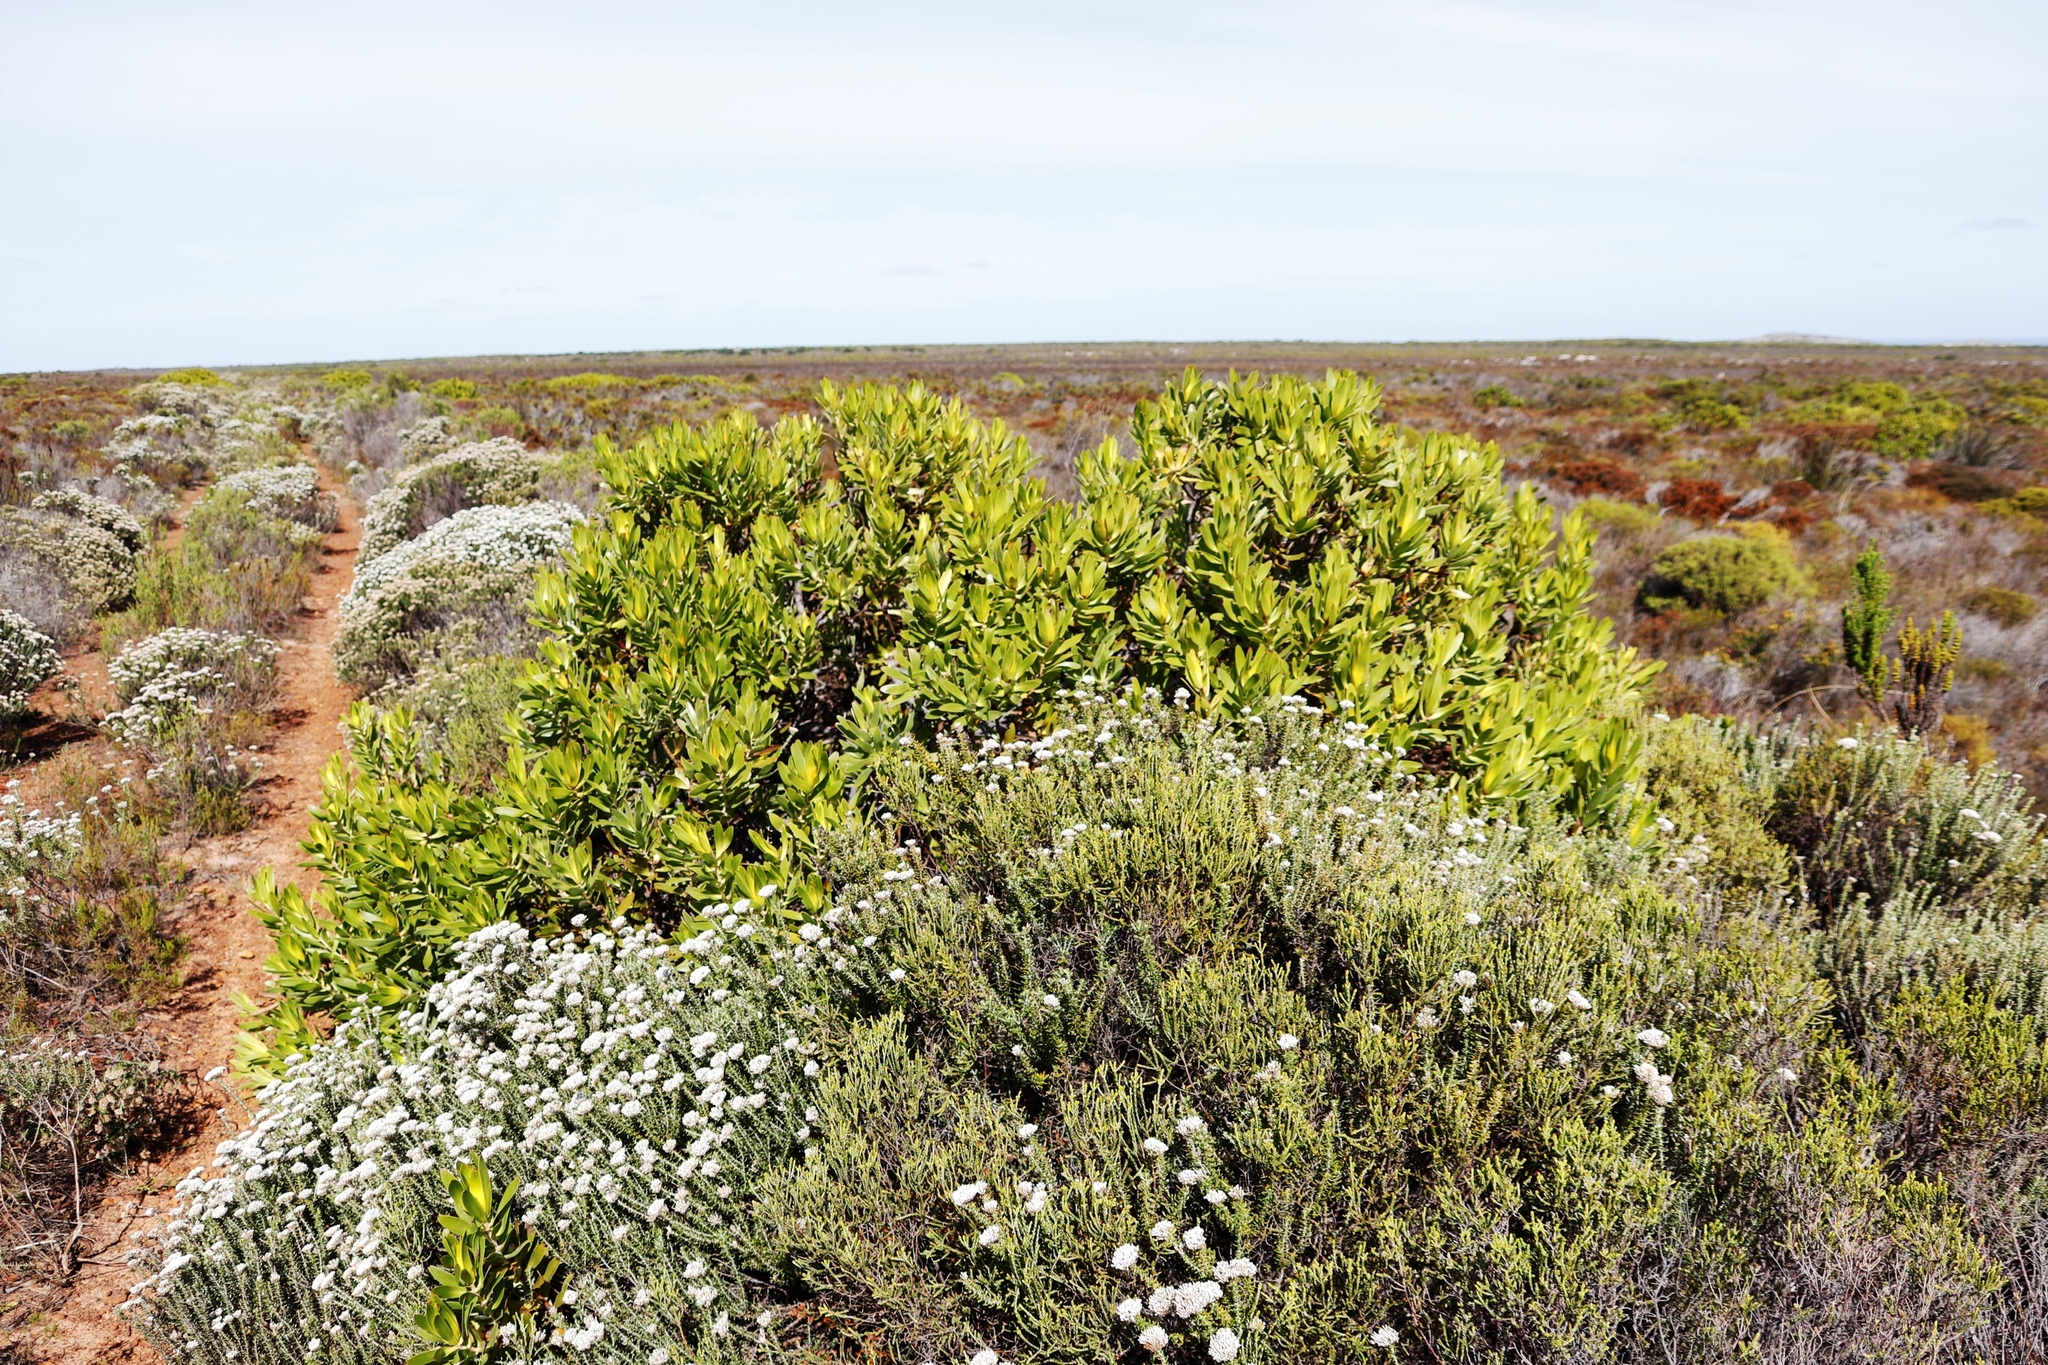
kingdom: Plantae
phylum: Tracheophyta
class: Magnoliopsida
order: Proteales
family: Proteaceae
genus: Leucadendron
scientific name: Leucadendron laureolum
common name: Golden sunshinebush
